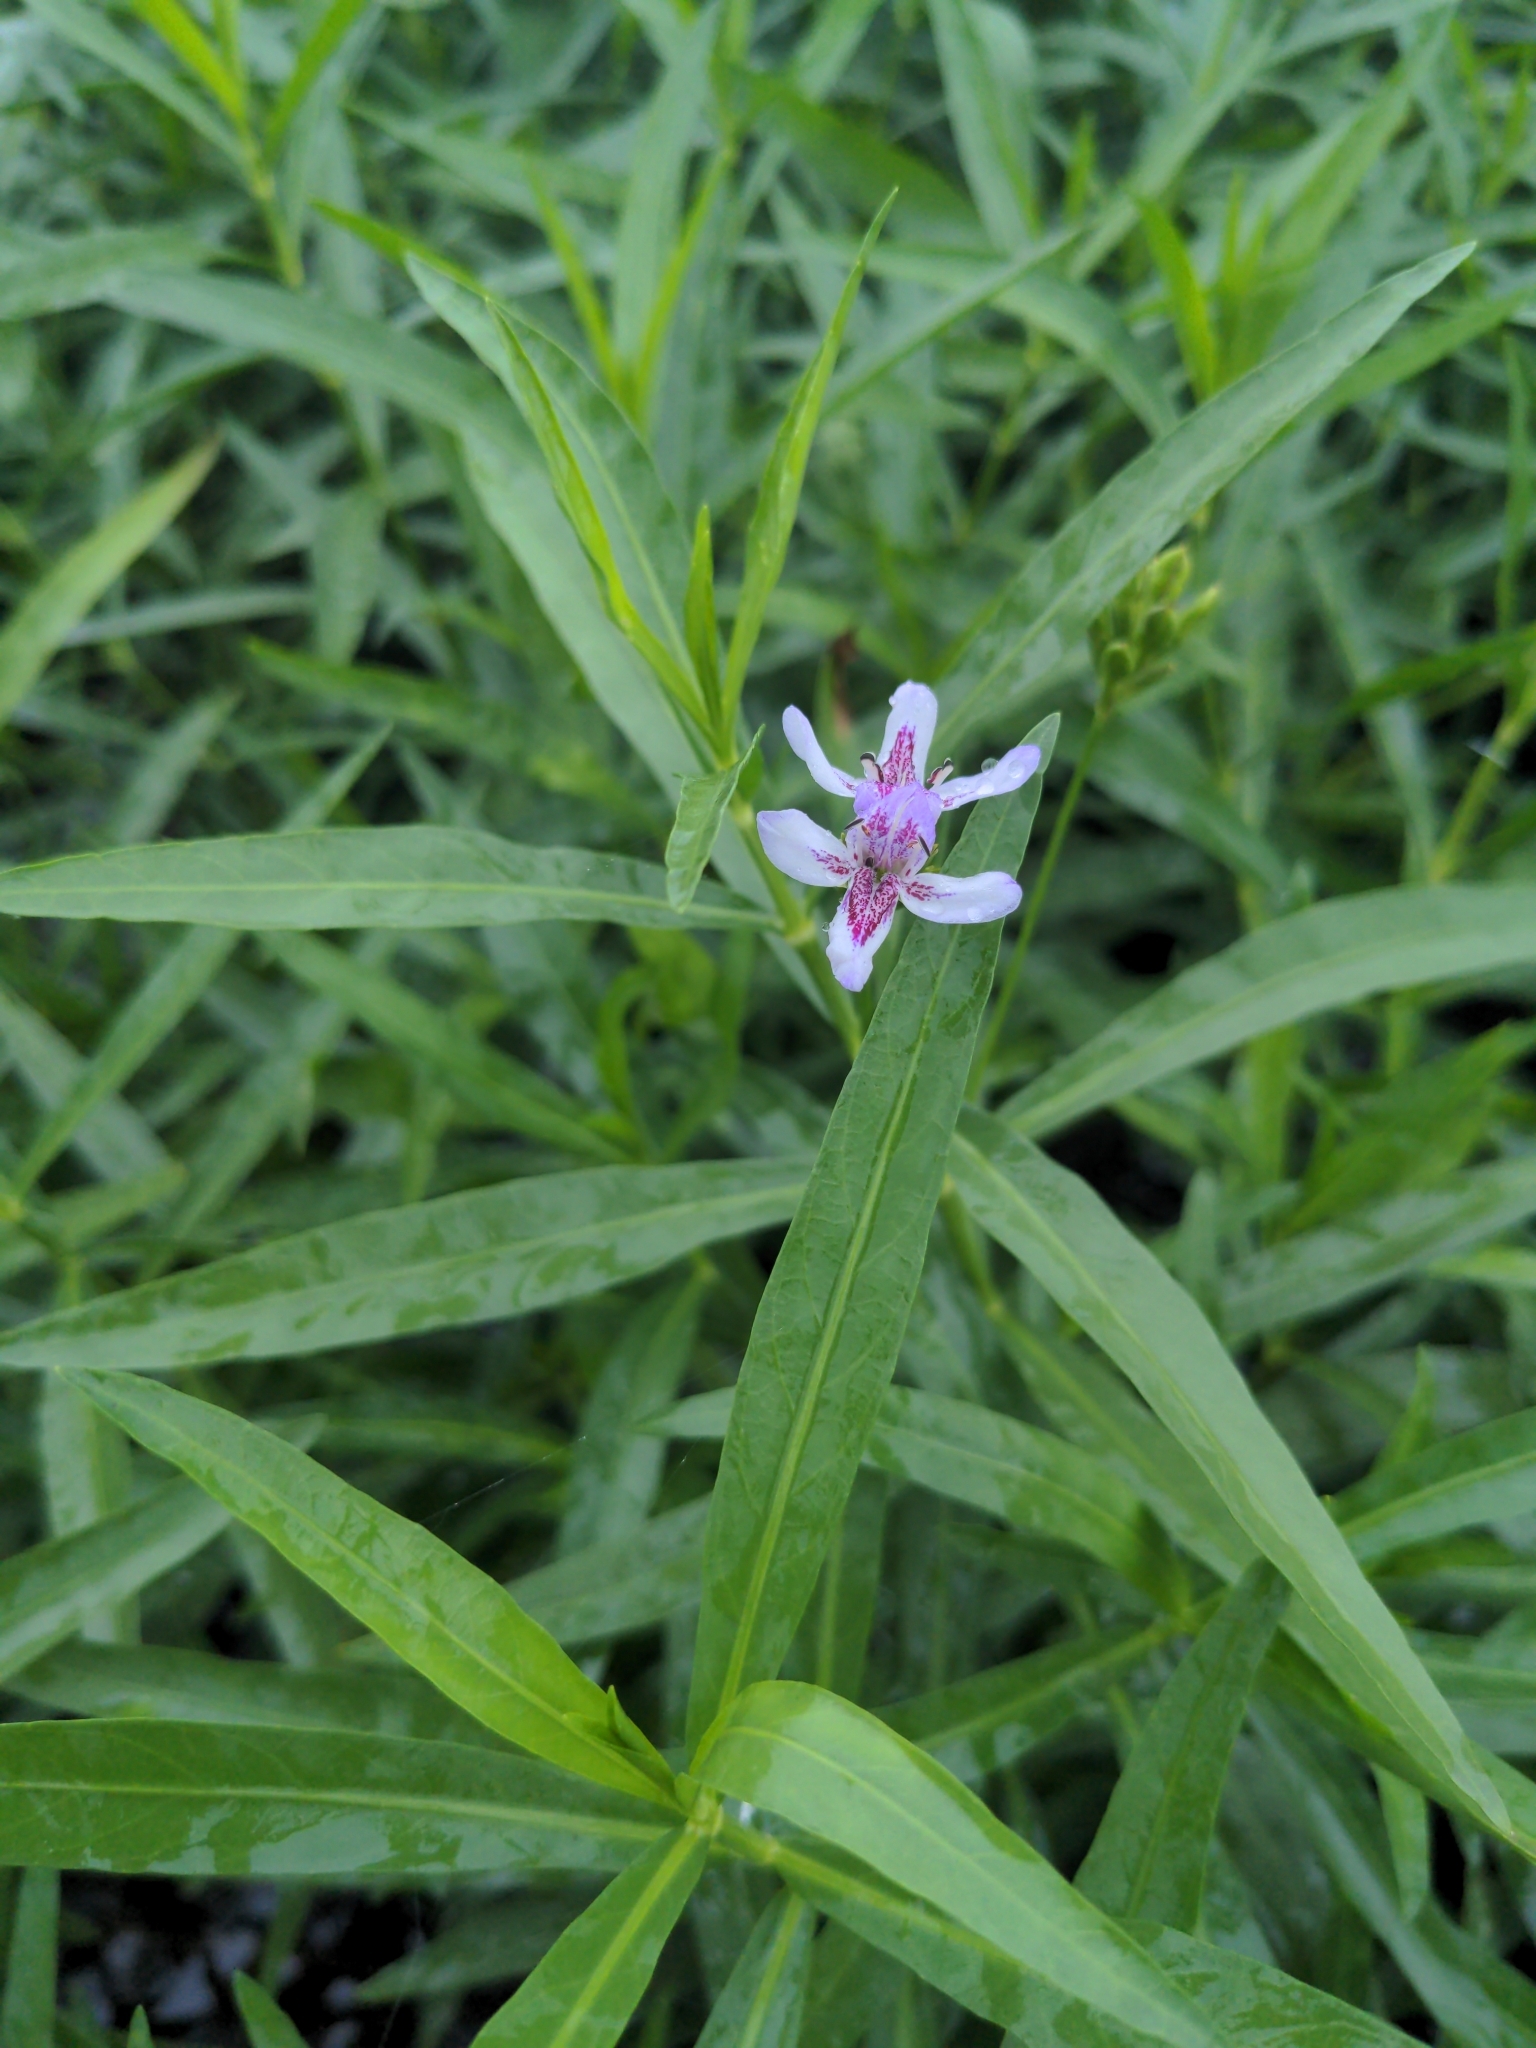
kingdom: Plantae
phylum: Tracheophyta
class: Magnoliopsida
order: Lamiales
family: Acanthaceae
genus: Dianthera
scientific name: Dianthera americana
